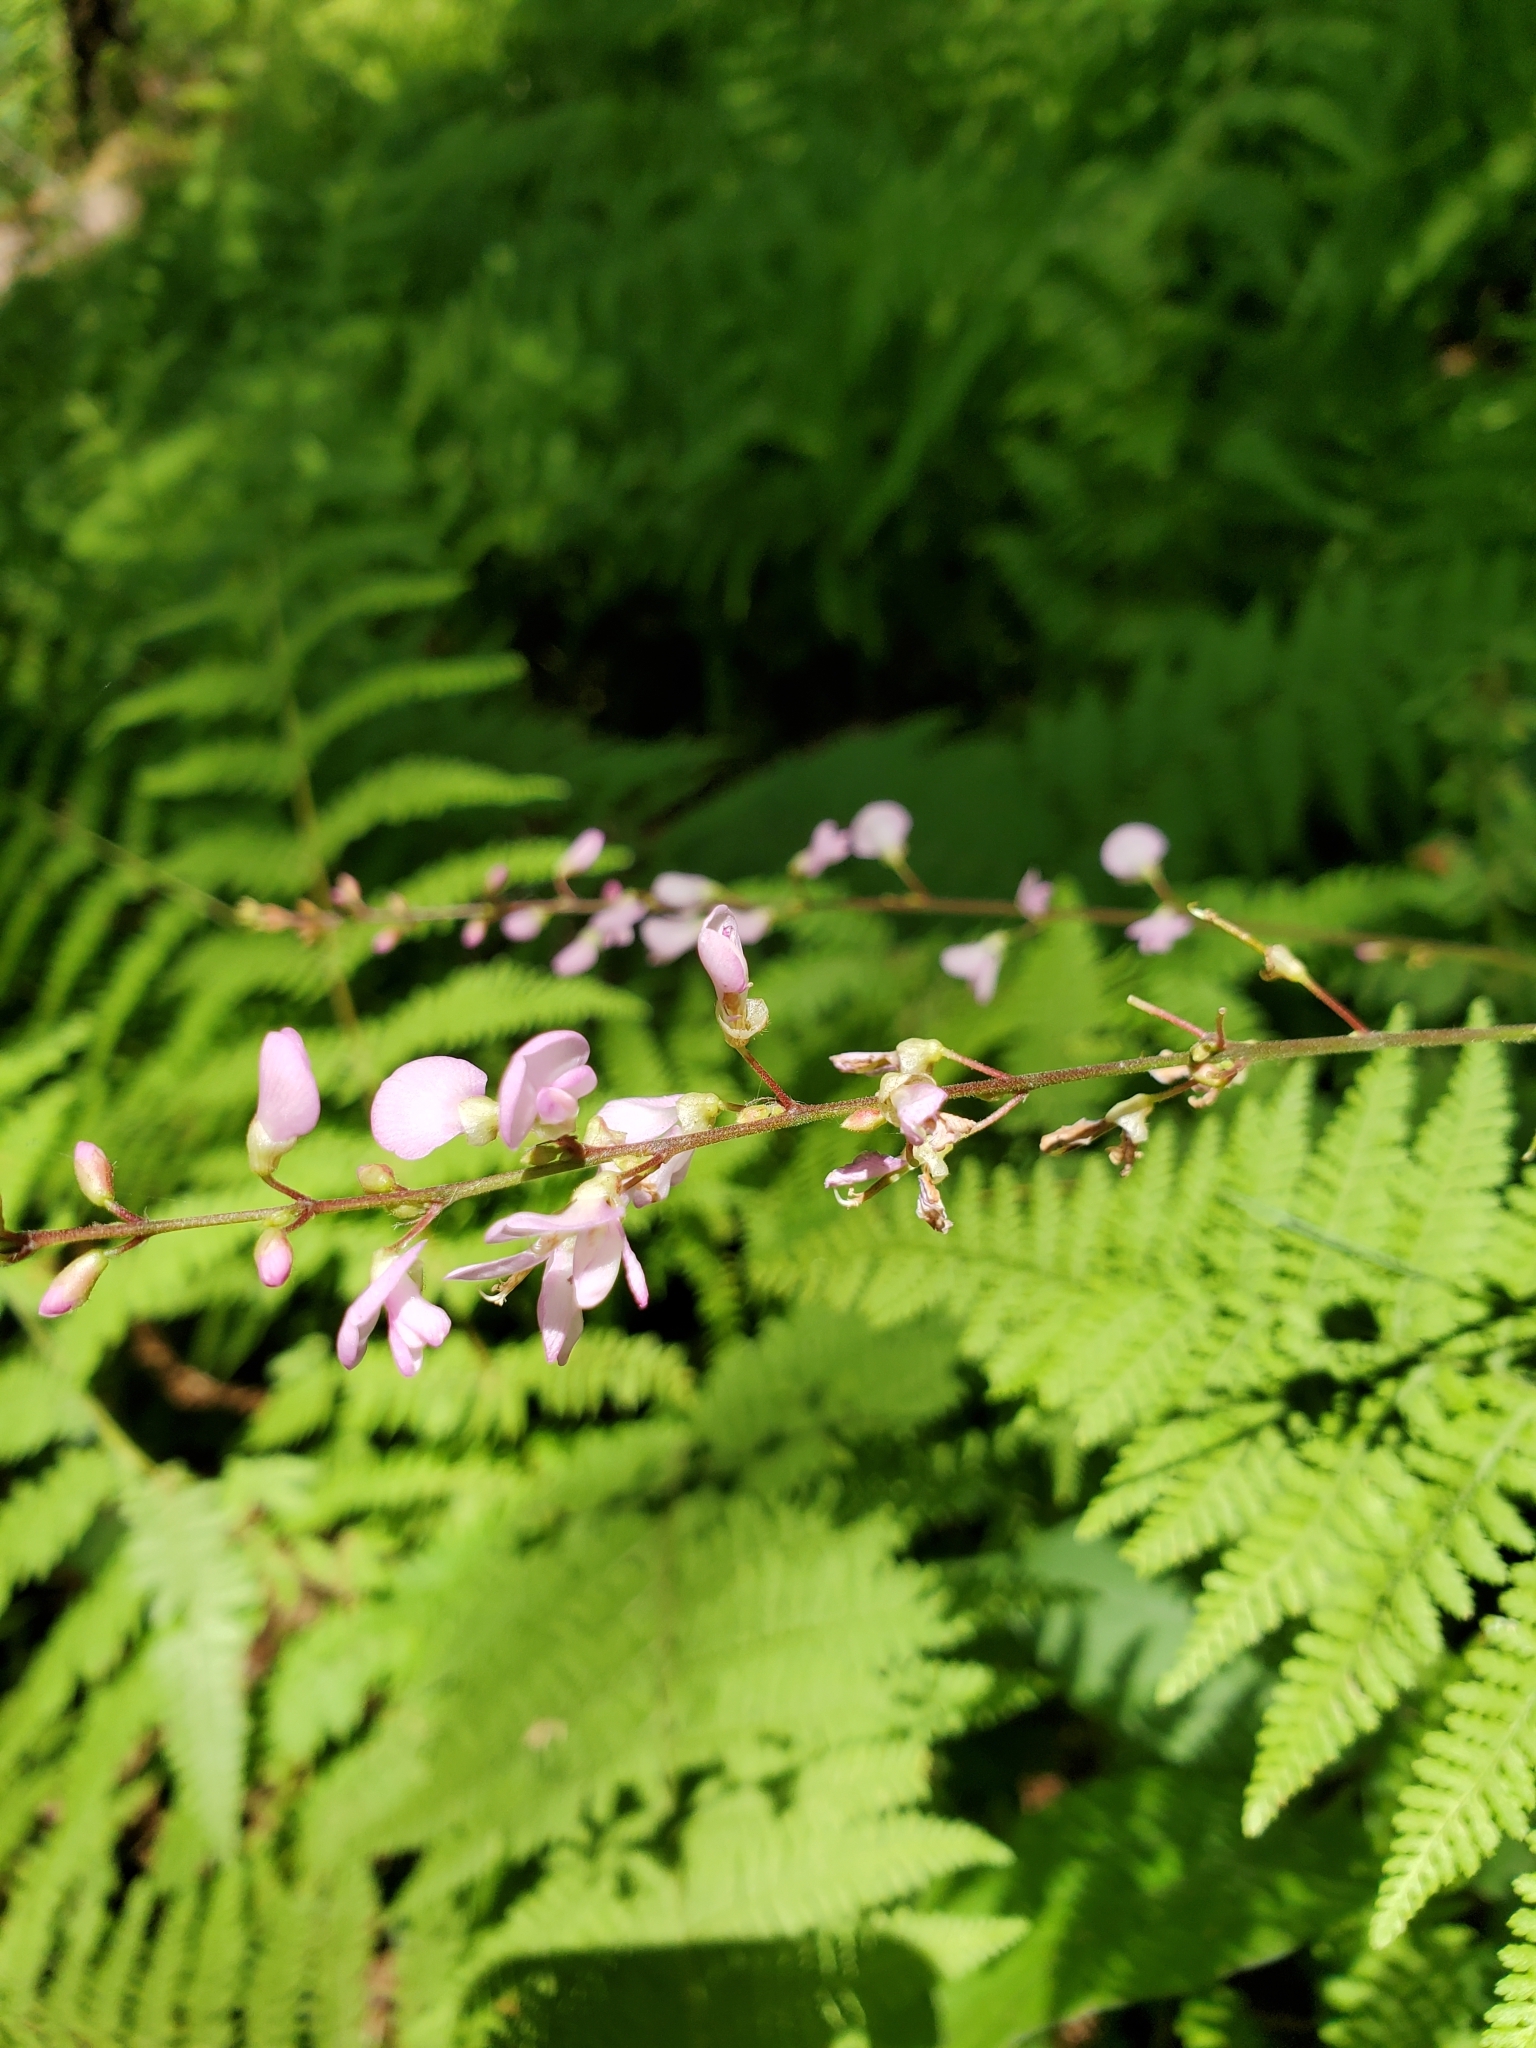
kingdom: Plantae
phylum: Tracheophyta
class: Magnoliopsida
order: Fabales
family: Fabaceae
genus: Hylodesmum
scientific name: Hylodesmum glutinosum
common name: Clustered-leaved tick-trefoil
